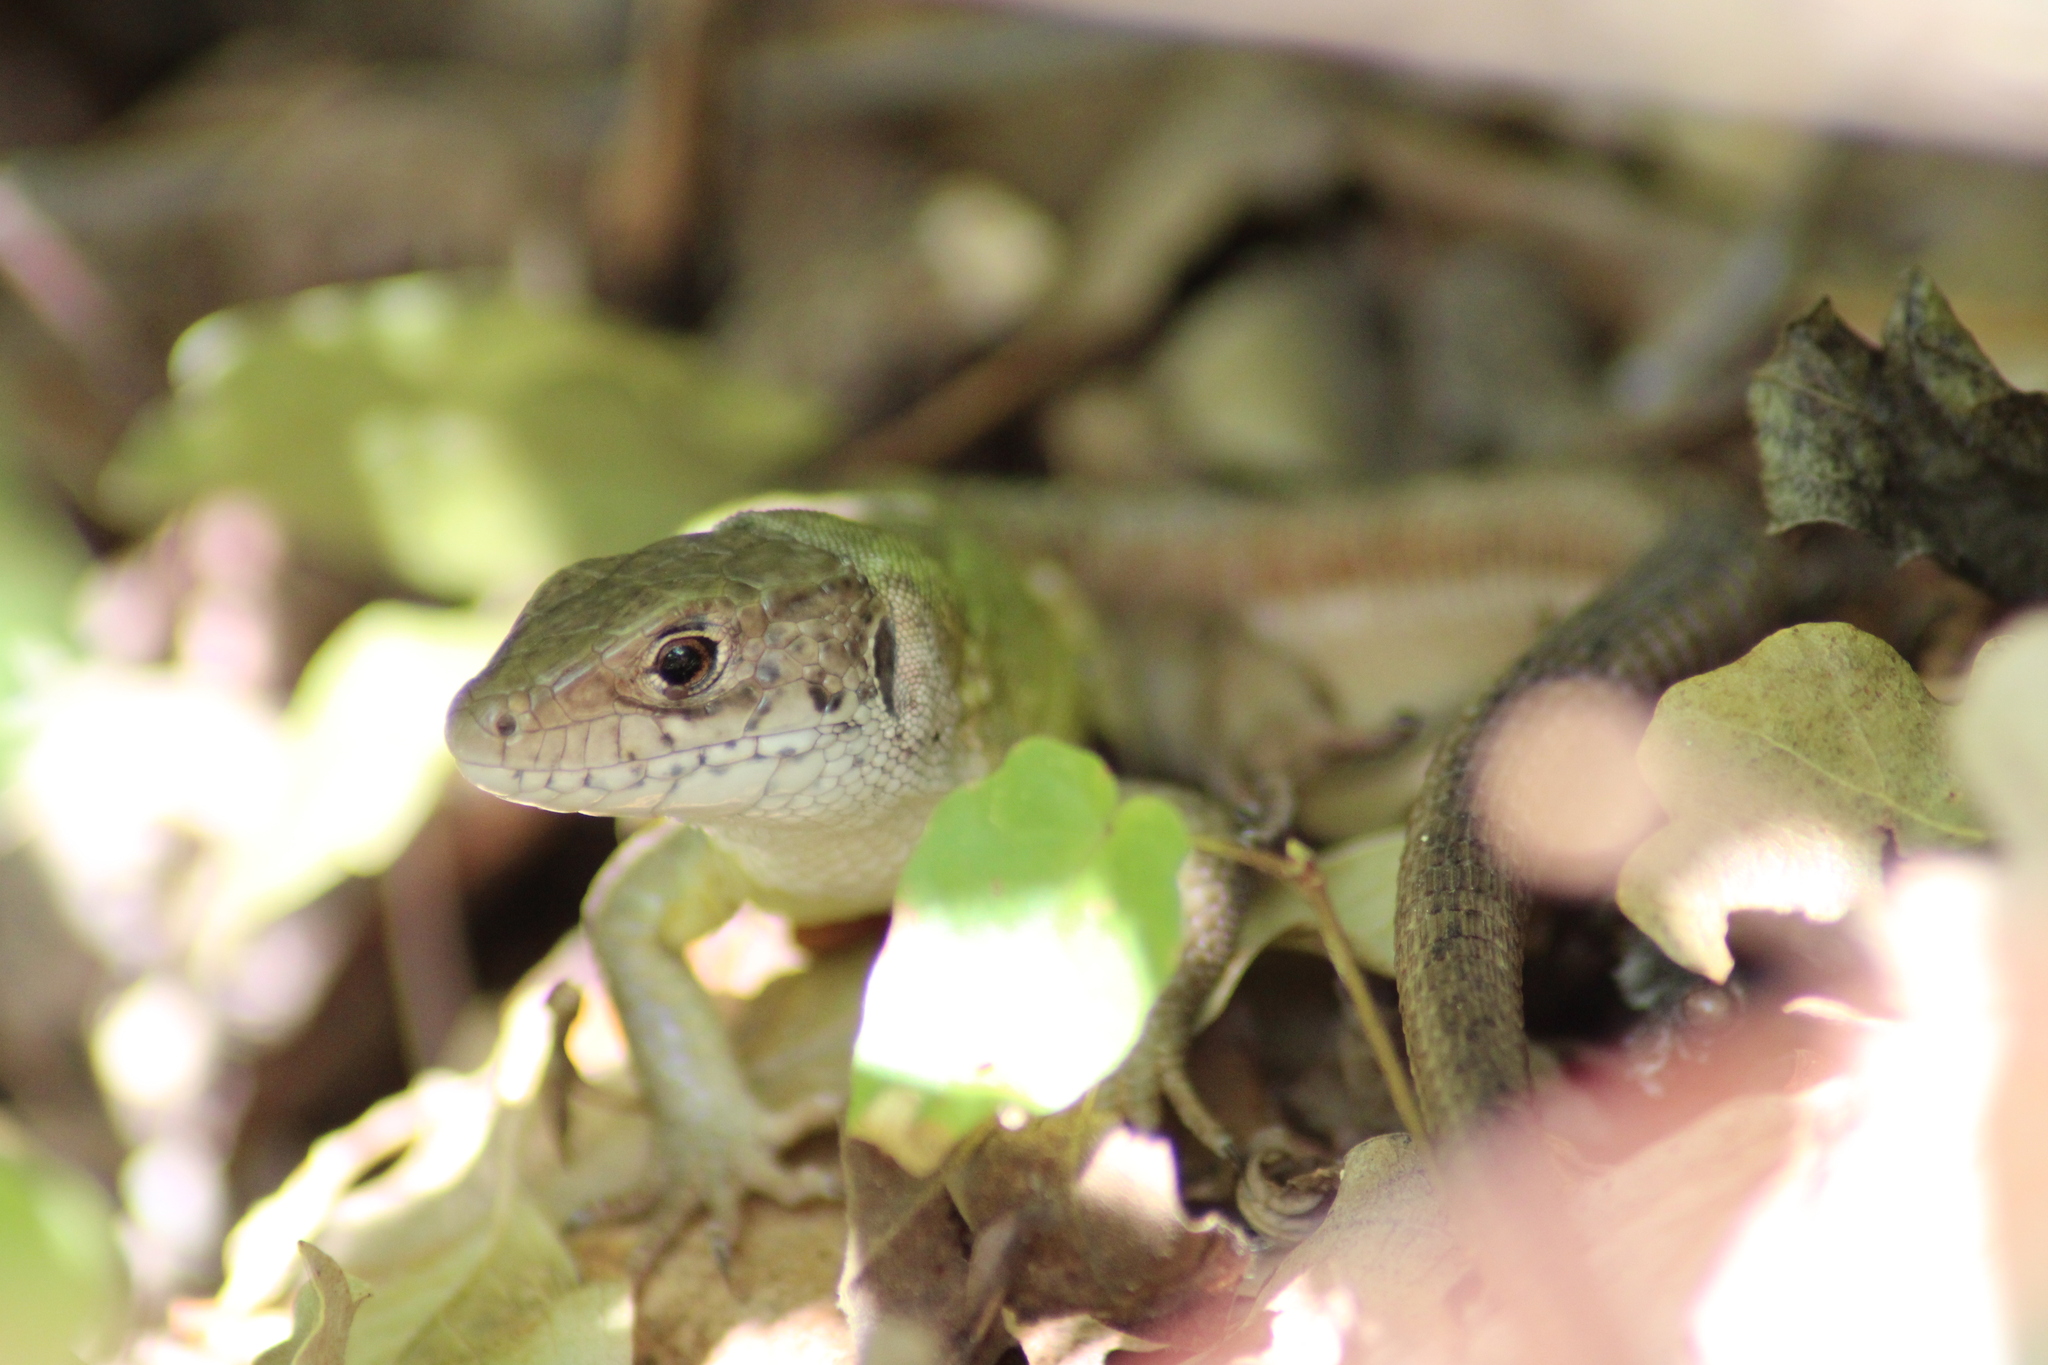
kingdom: Animalia
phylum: Chordata
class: Squamata
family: Lacertidae
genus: Lacerta
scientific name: Lacerta viridis
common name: European green lizard
